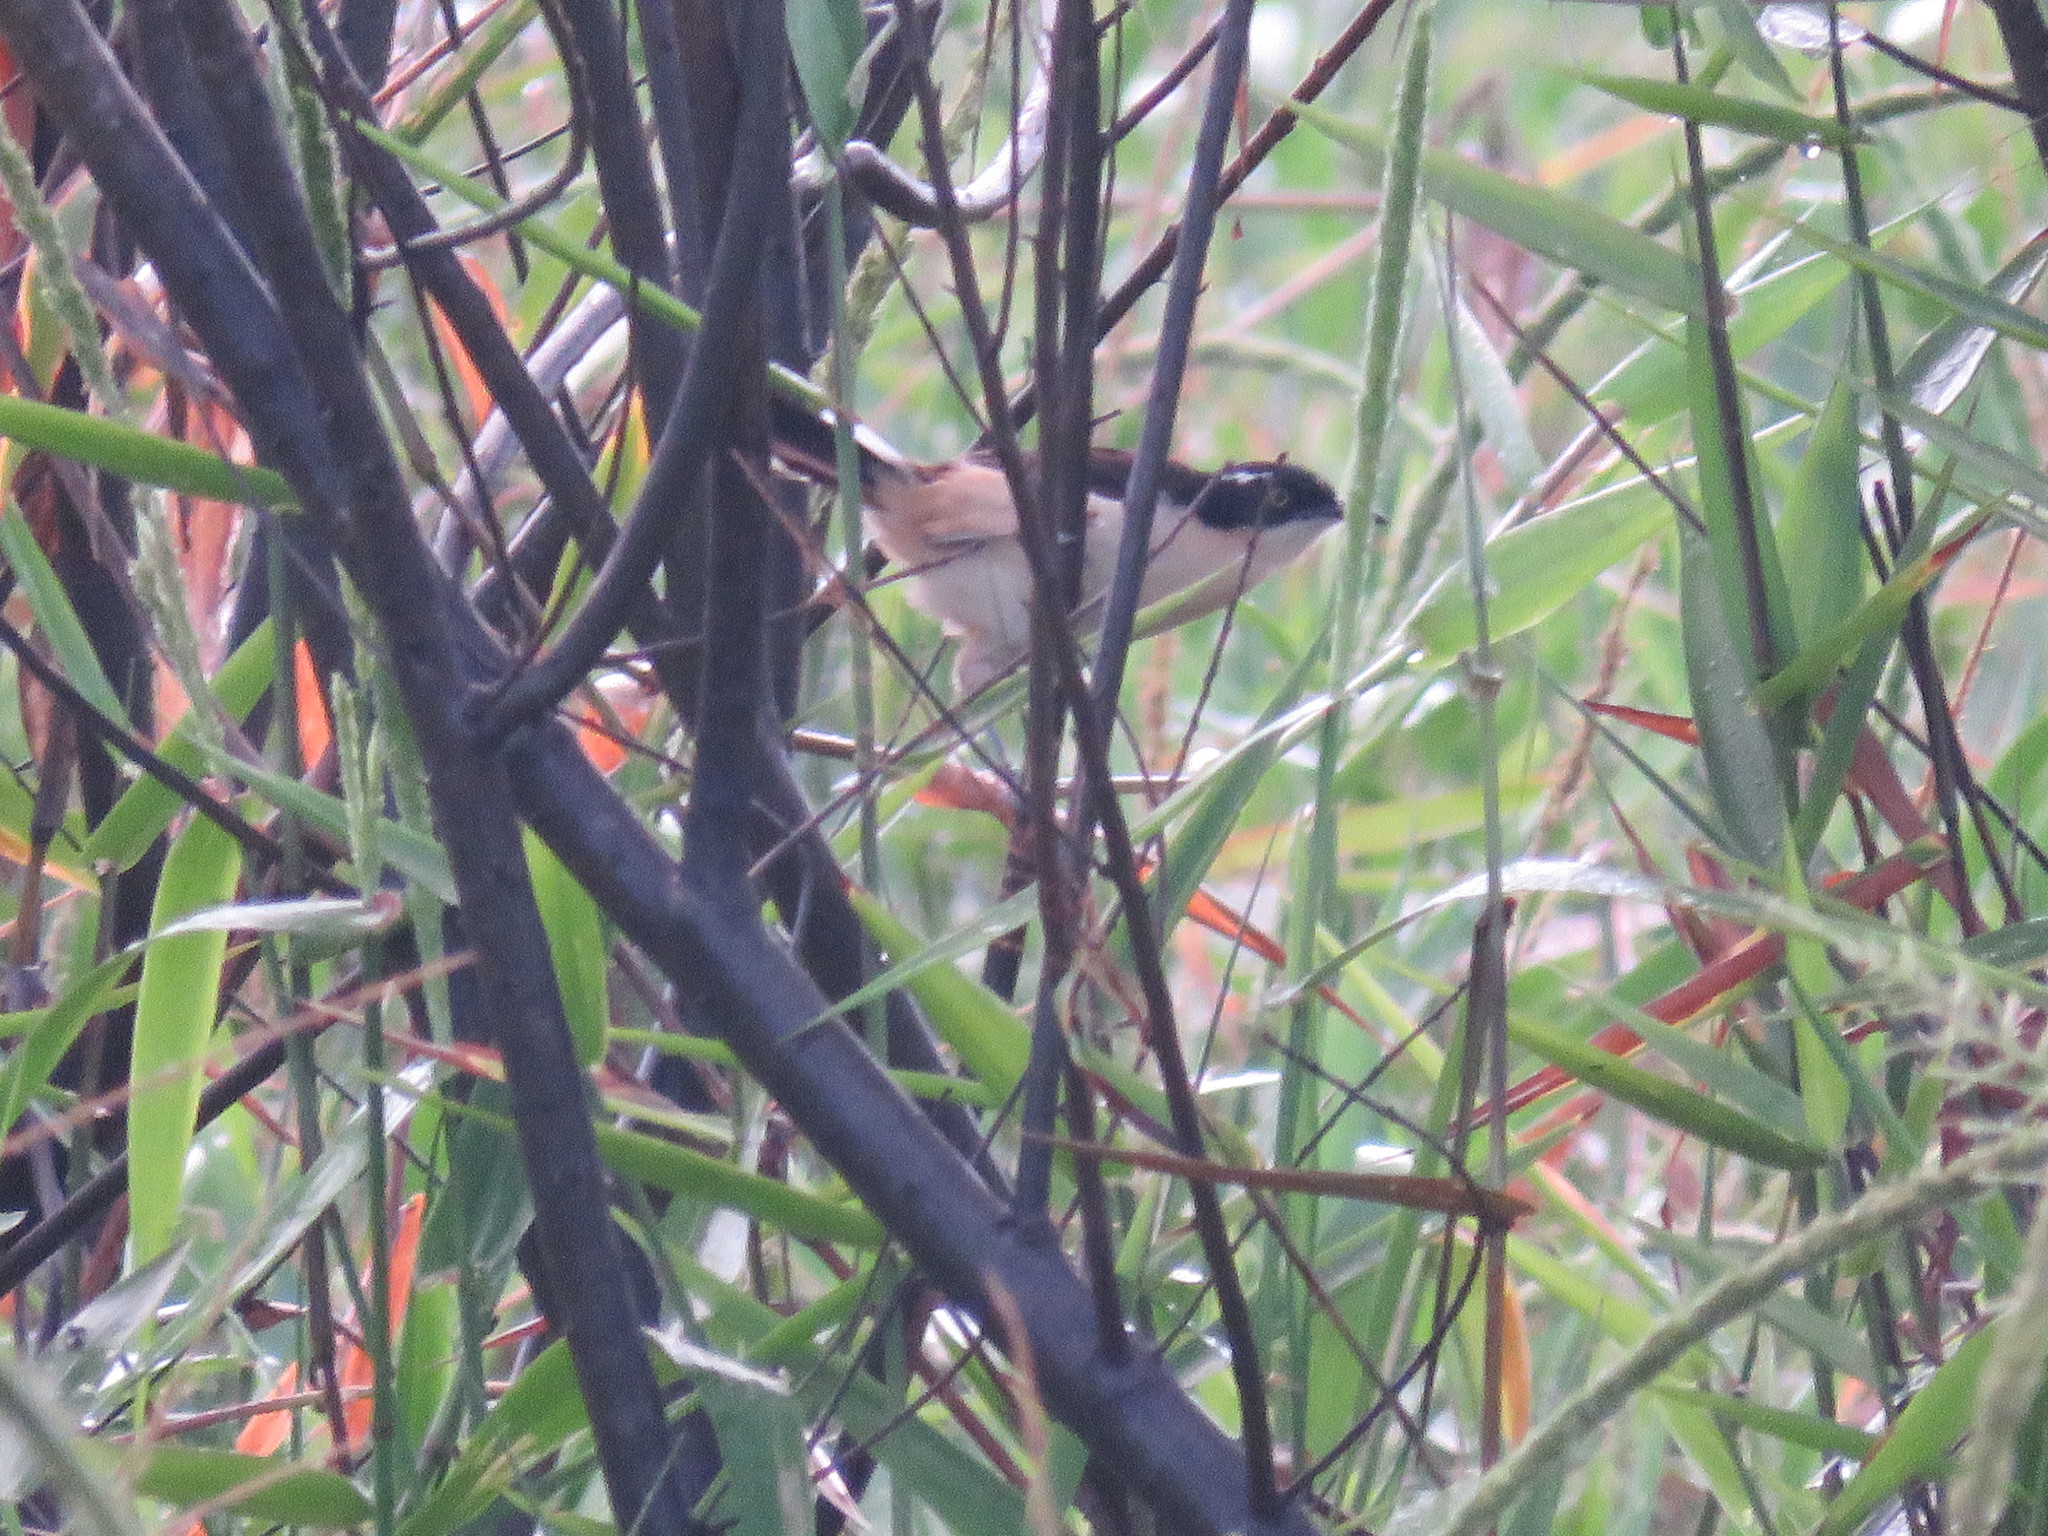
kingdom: Animalia
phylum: Chordata
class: Aves
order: Passeriformes
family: Donacobiidae
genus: Donacobius
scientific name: Donacobius atricapilla
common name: Black-capped donacobius
